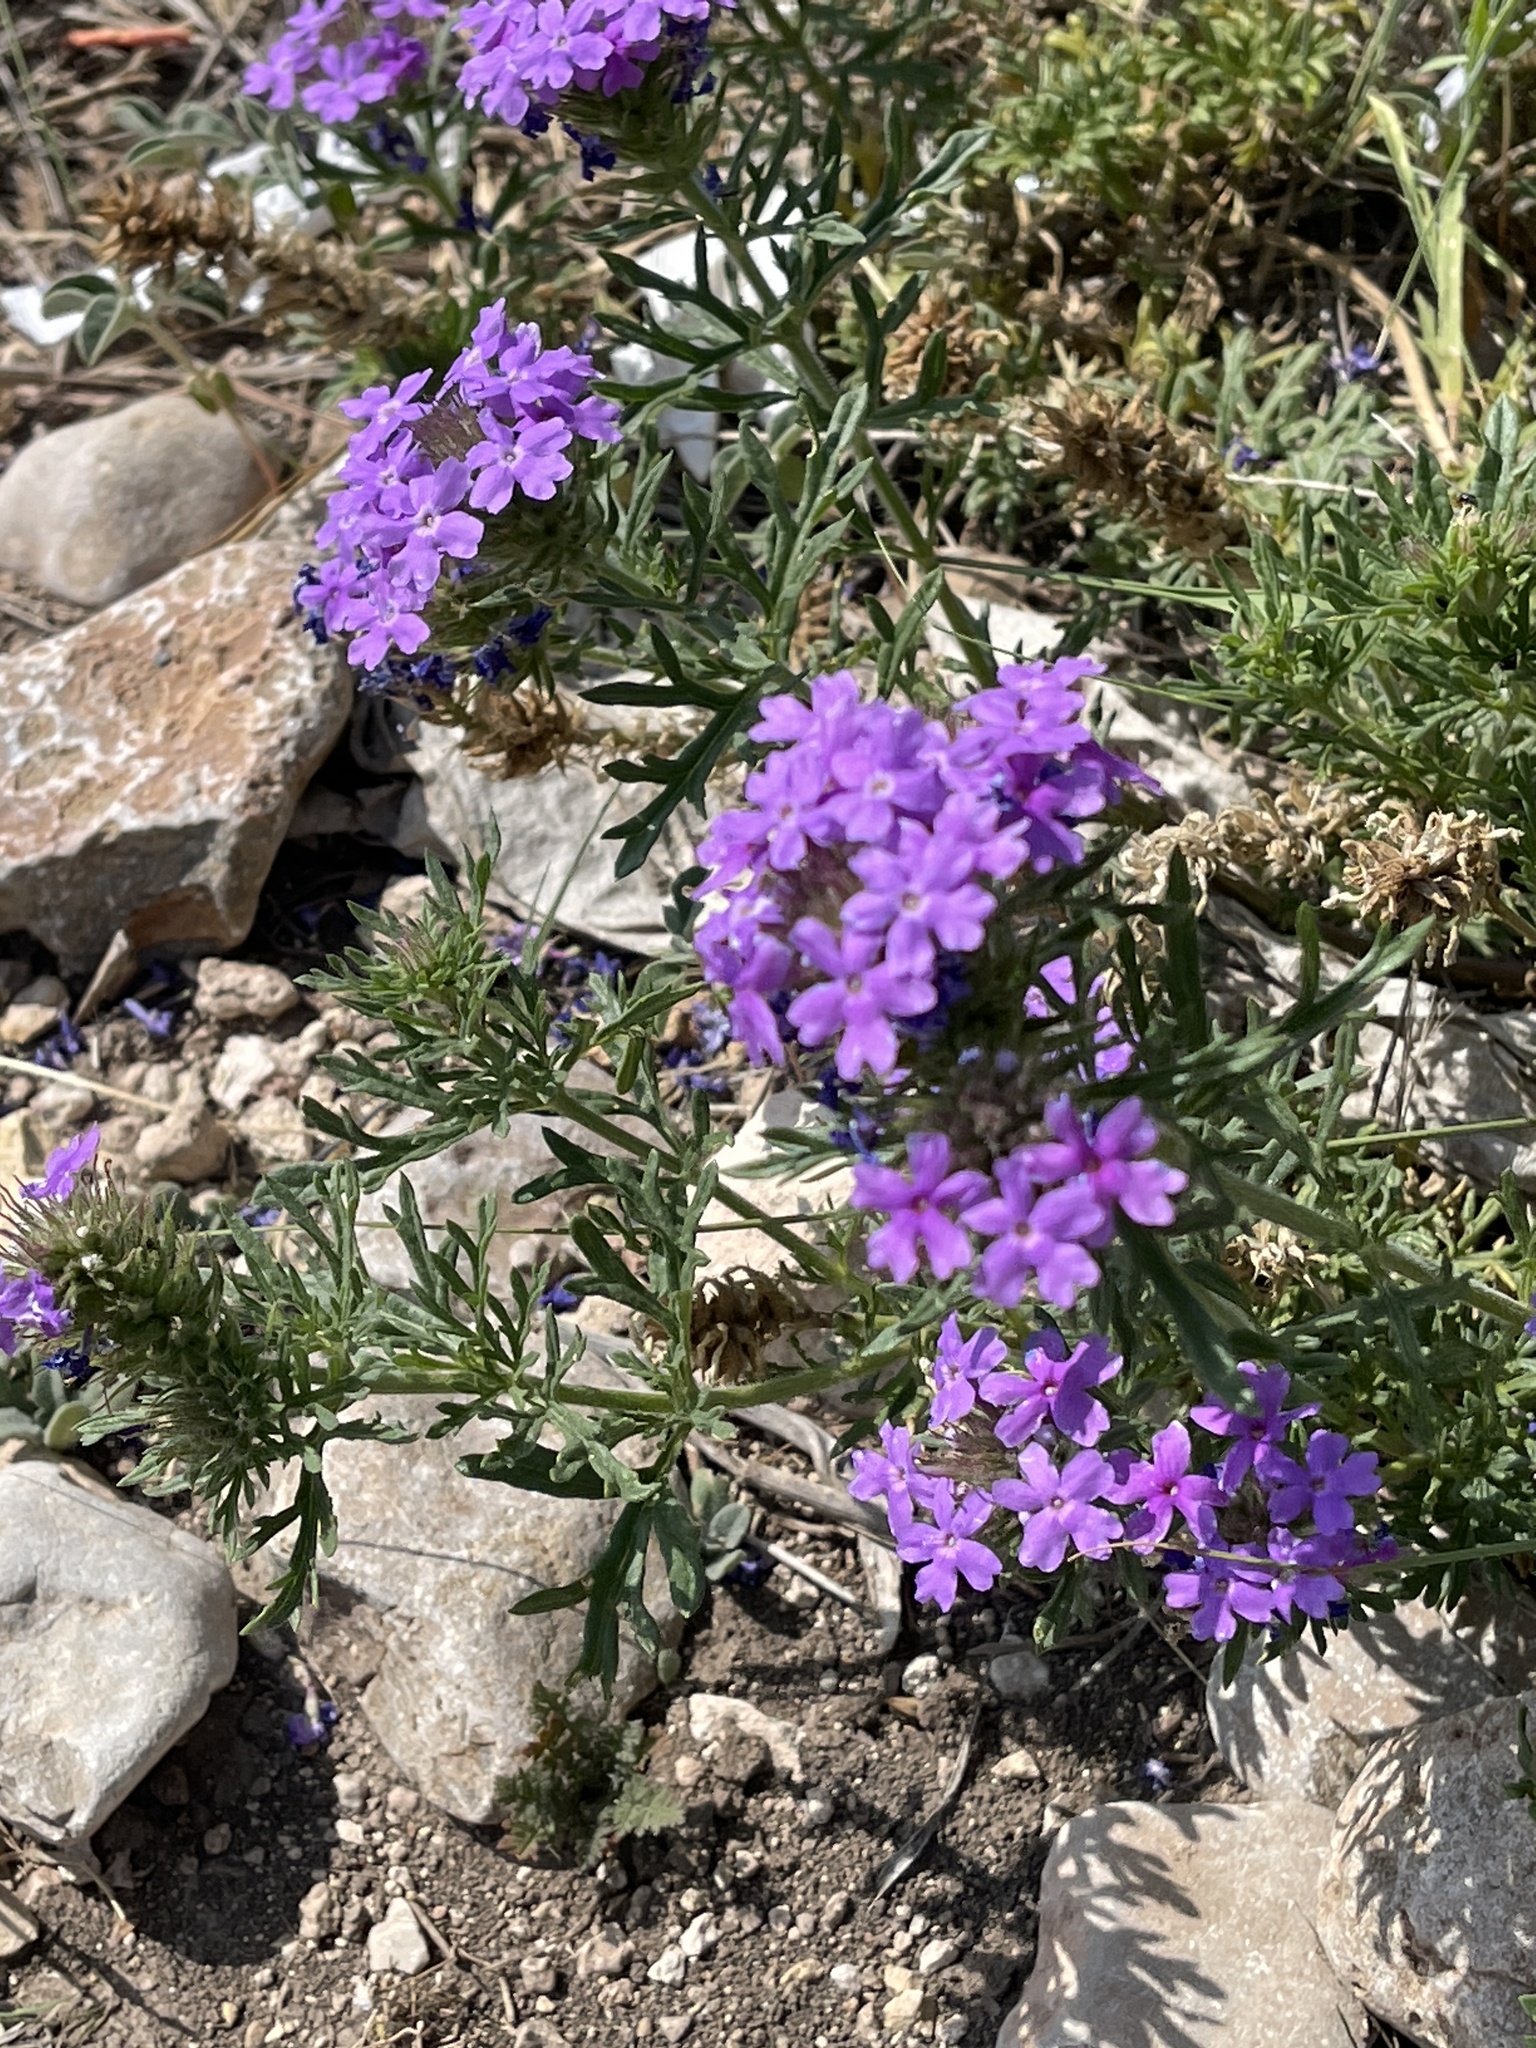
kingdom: Plantae
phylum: Tracheophyta
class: Magnoliopsida
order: Lamiales
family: Verbenaceae
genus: Verbena
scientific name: Verbena bipinnatifida
